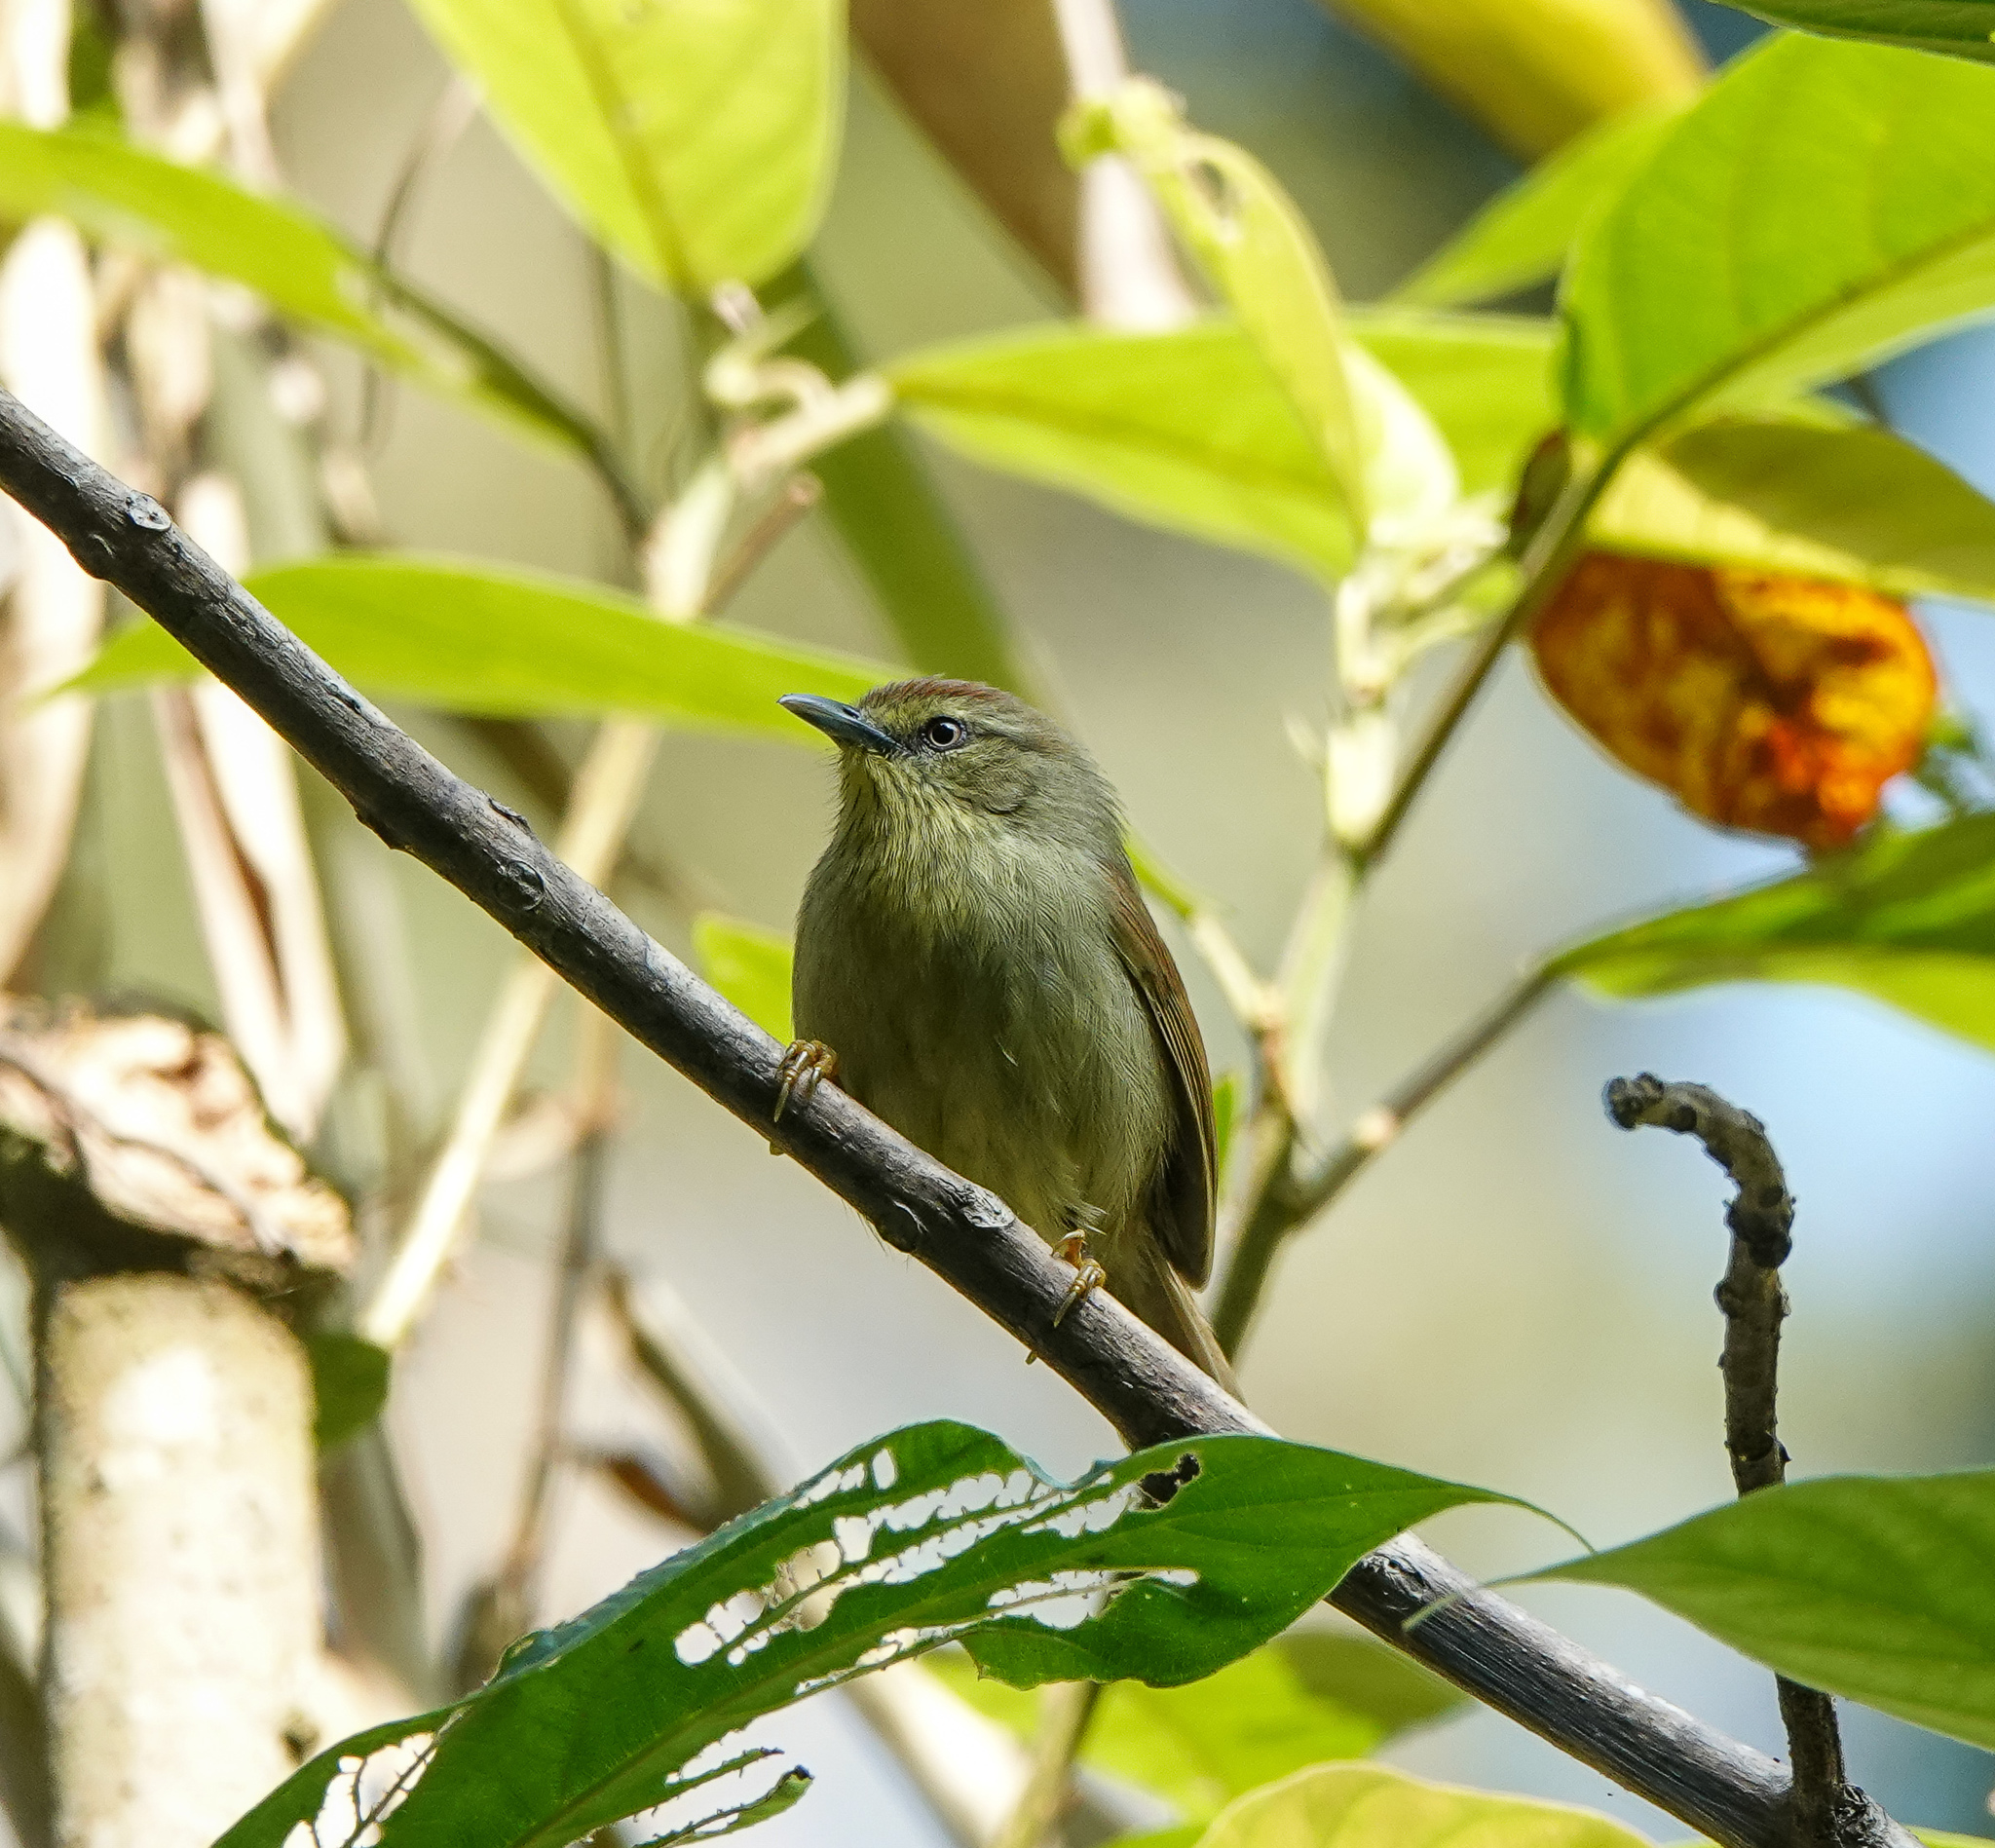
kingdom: Animalia
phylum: Chordata
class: Aves
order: Passeriformes
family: Timaliidae
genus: Macronus
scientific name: Macronus gularis
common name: Striped tit-babbler
